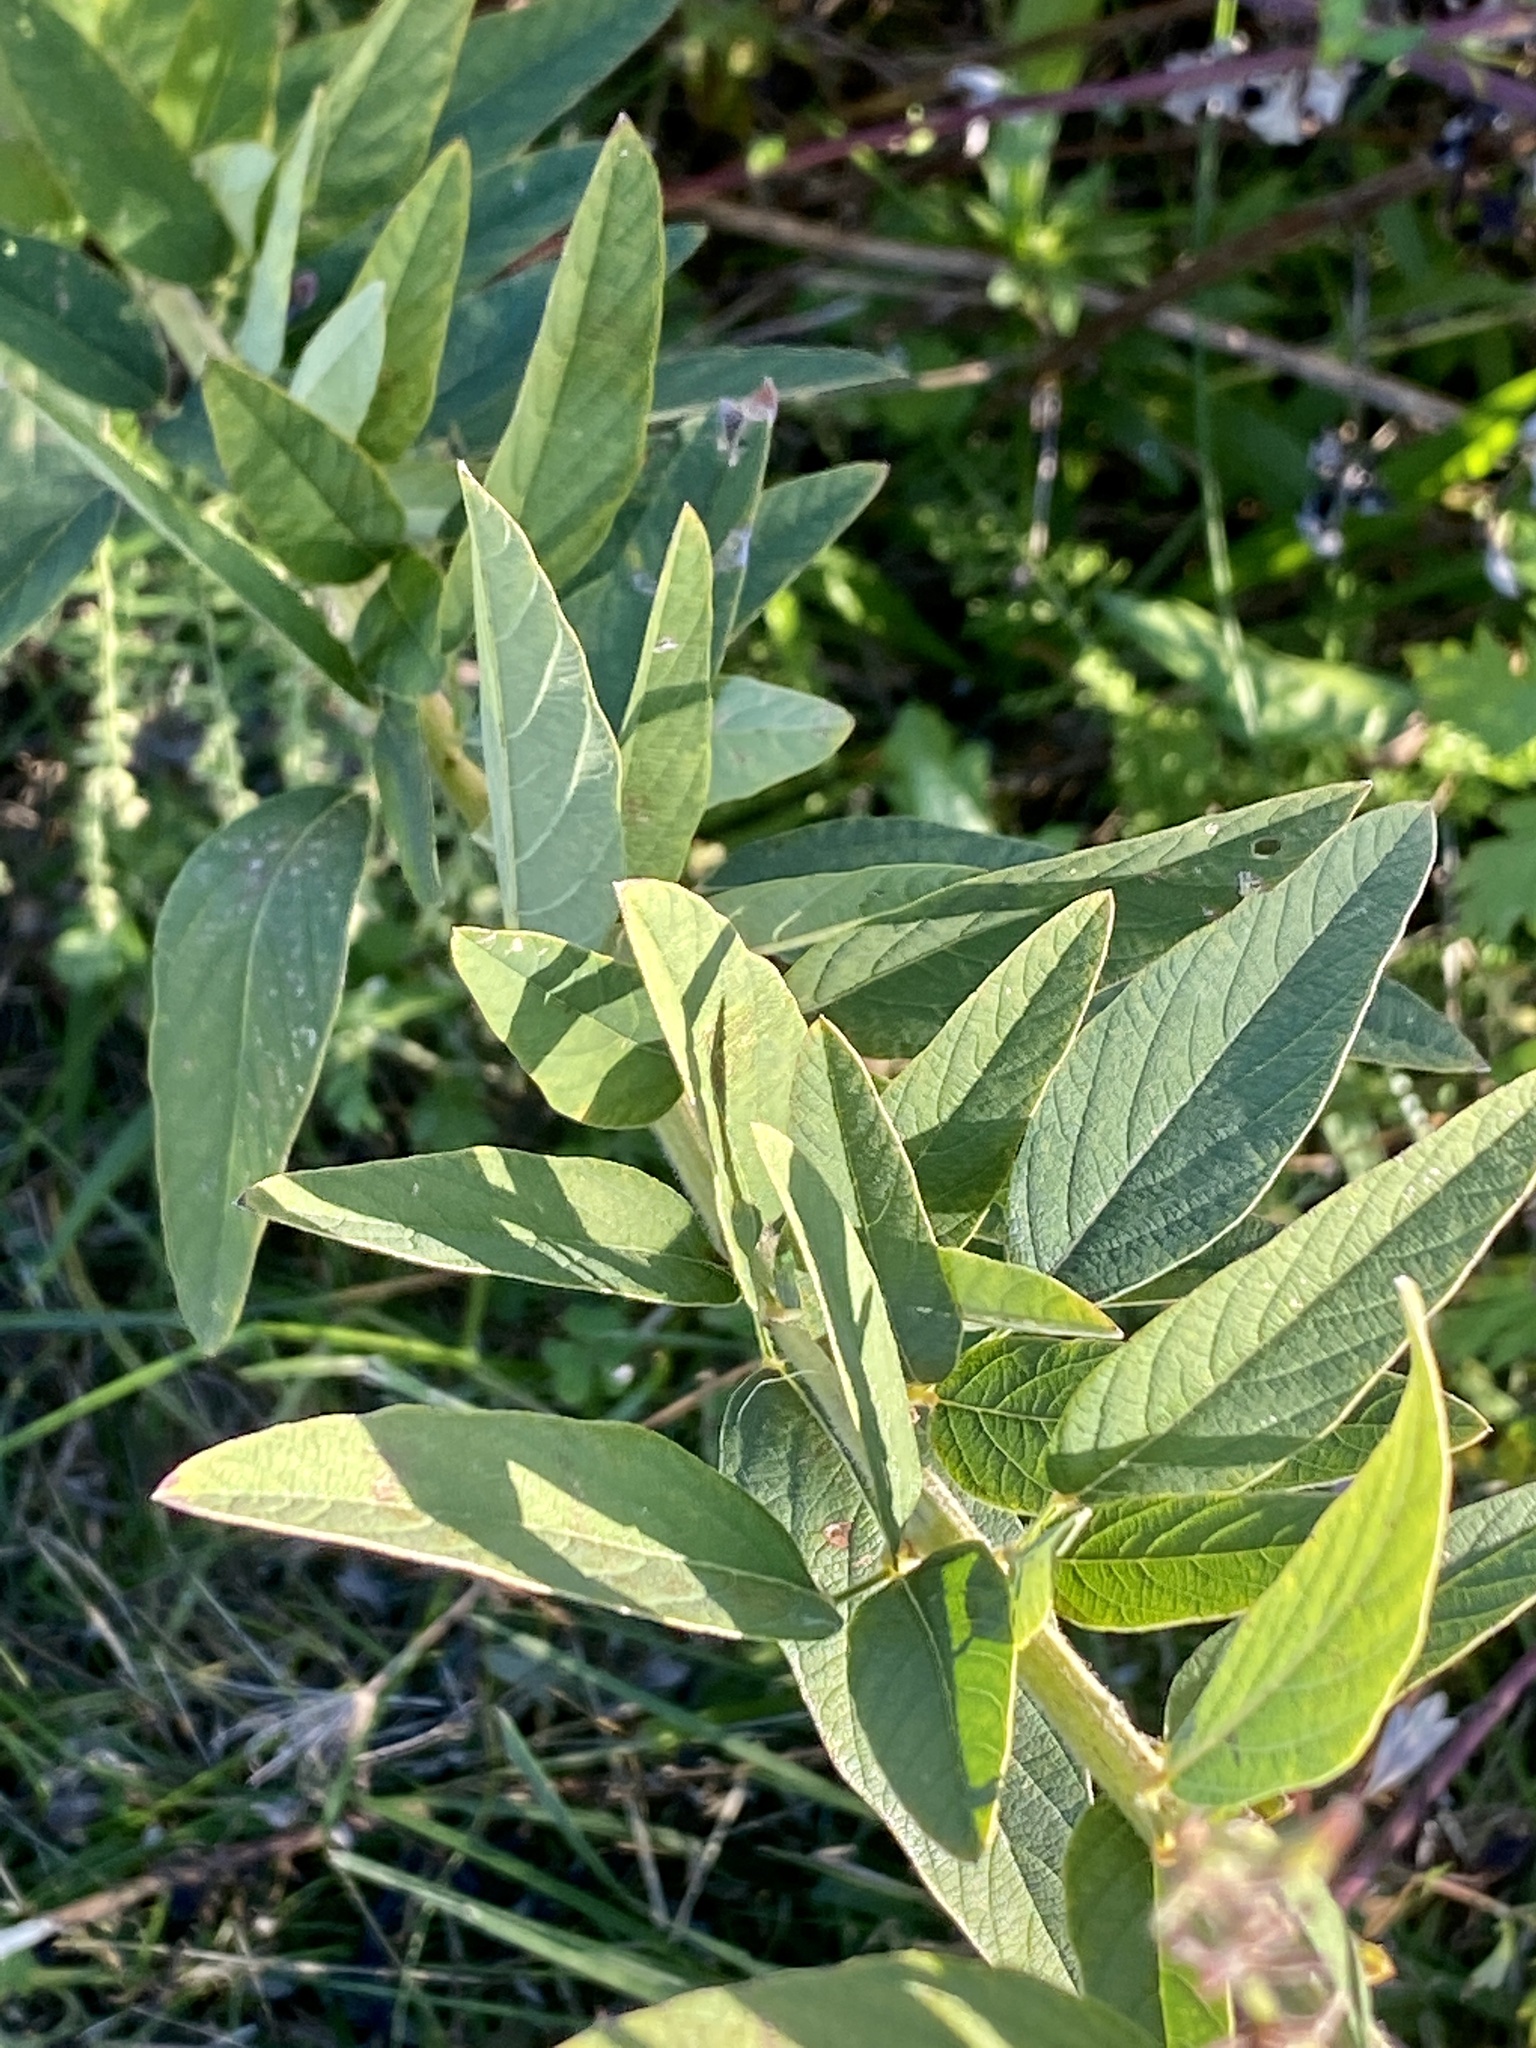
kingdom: Plantae
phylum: Tracheophyta
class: Magnoliopsida
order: Fabales
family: Fabaceae
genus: Desmodium
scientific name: Desmodium canadense
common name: Canada tick-trefoil
